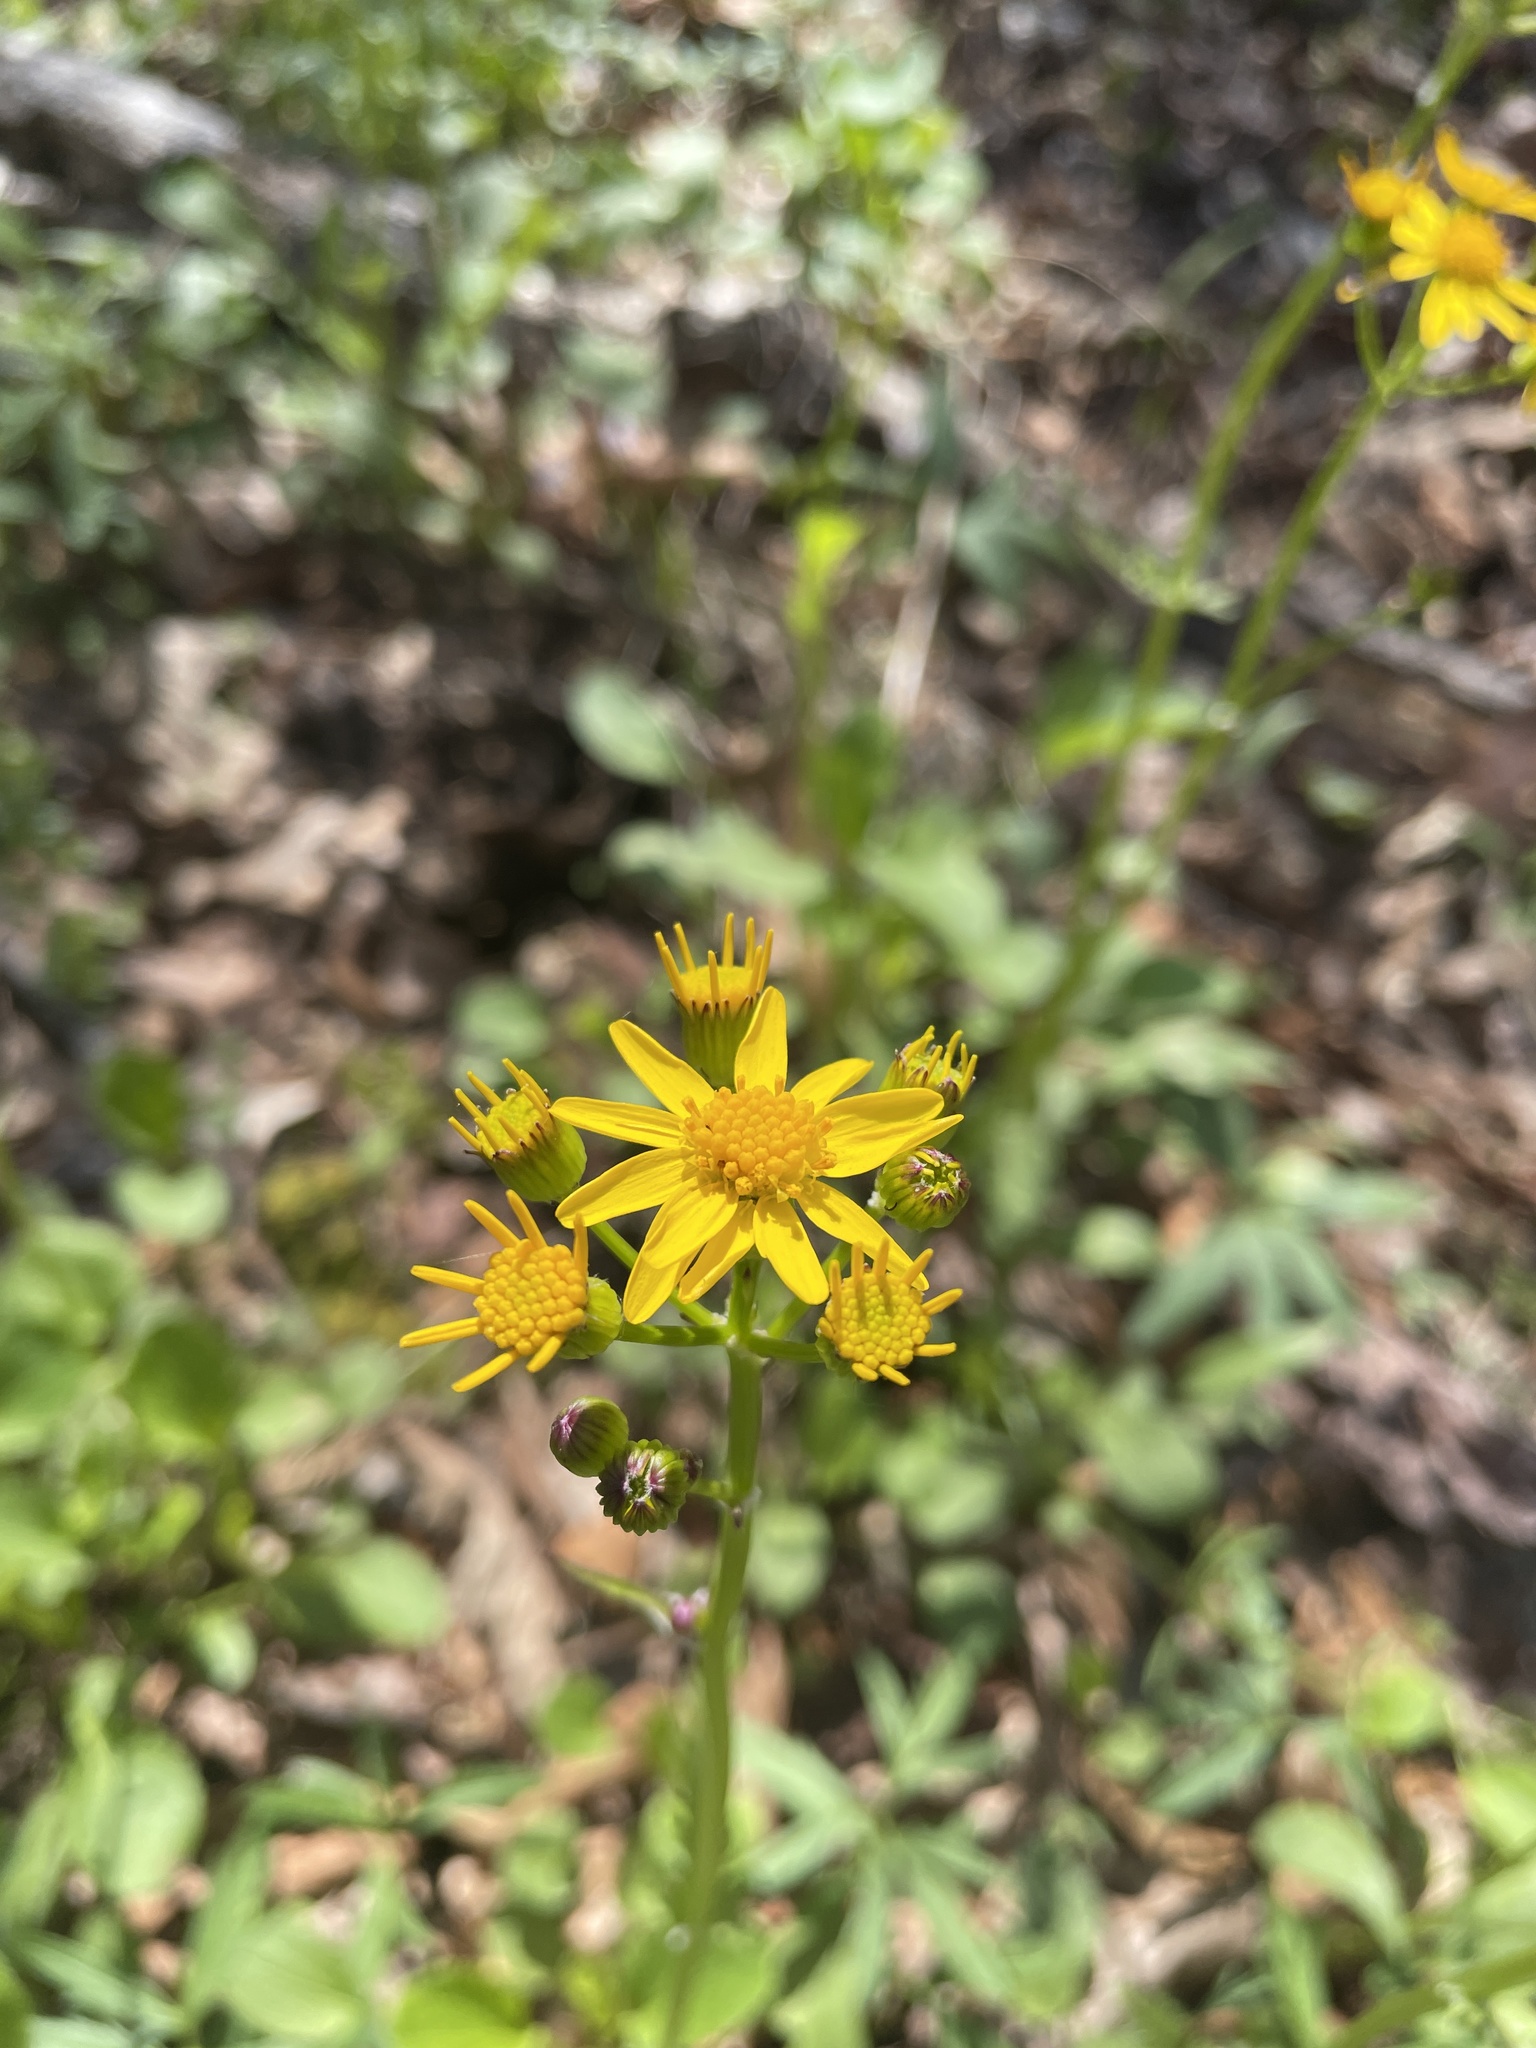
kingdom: Plantae
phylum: Tracheophyta
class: Magnoliopsida
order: Asterales
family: Asteraceae
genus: Packera
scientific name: Packera obovata
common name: Round-leaf ragwort
